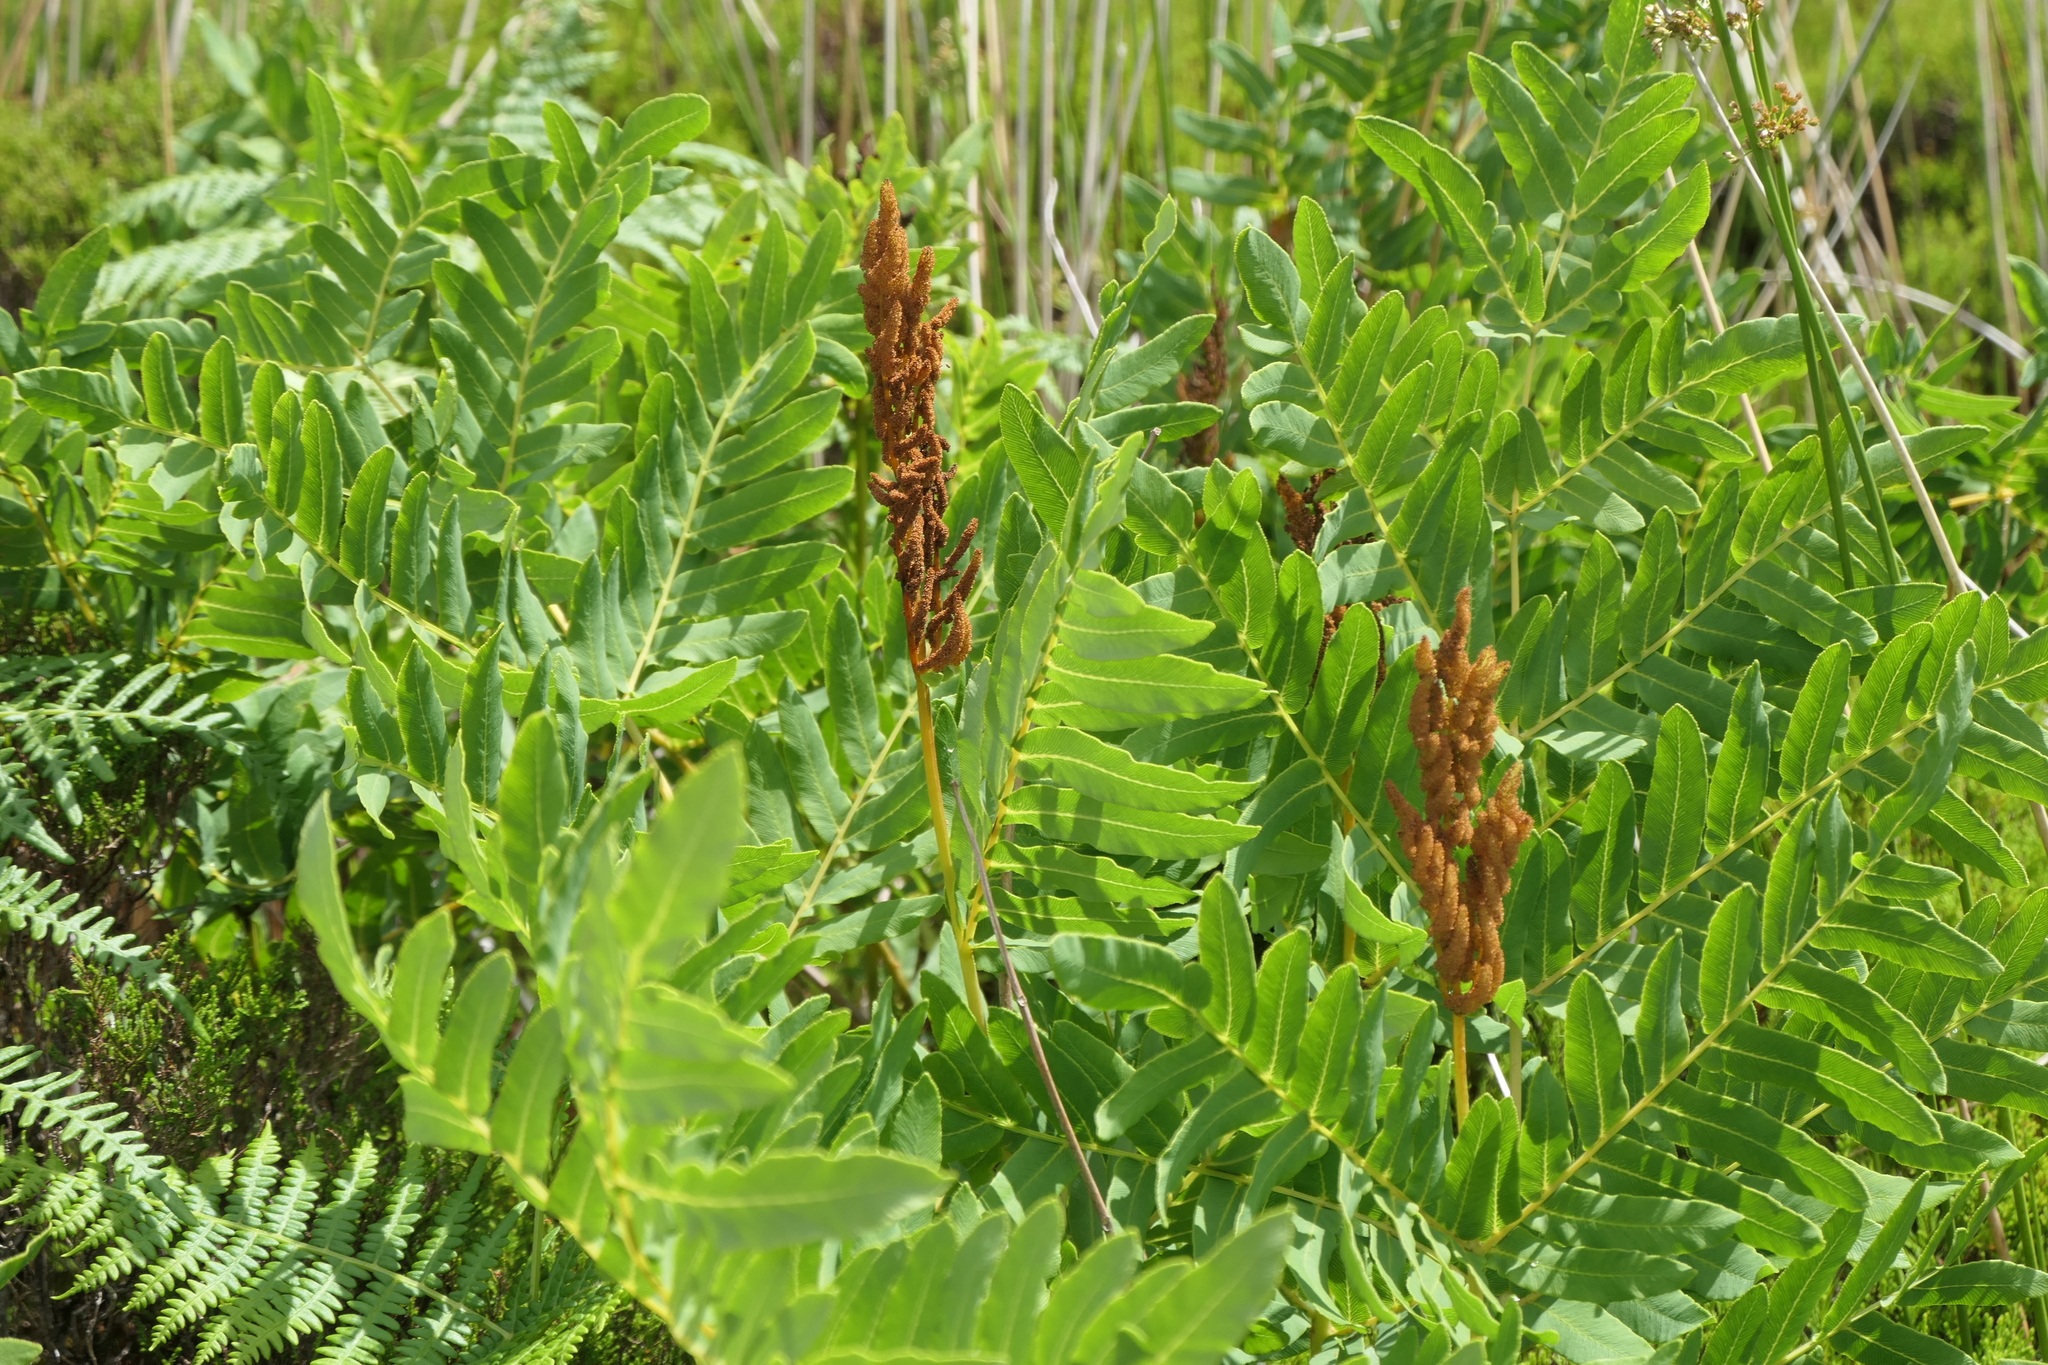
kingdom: Plantae
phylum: Tracheophyta
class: Polypodiopsida
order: Osmundales
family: Osmundaceae
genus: Osmunda
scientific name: Osmunda regalis
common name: Royal fern
